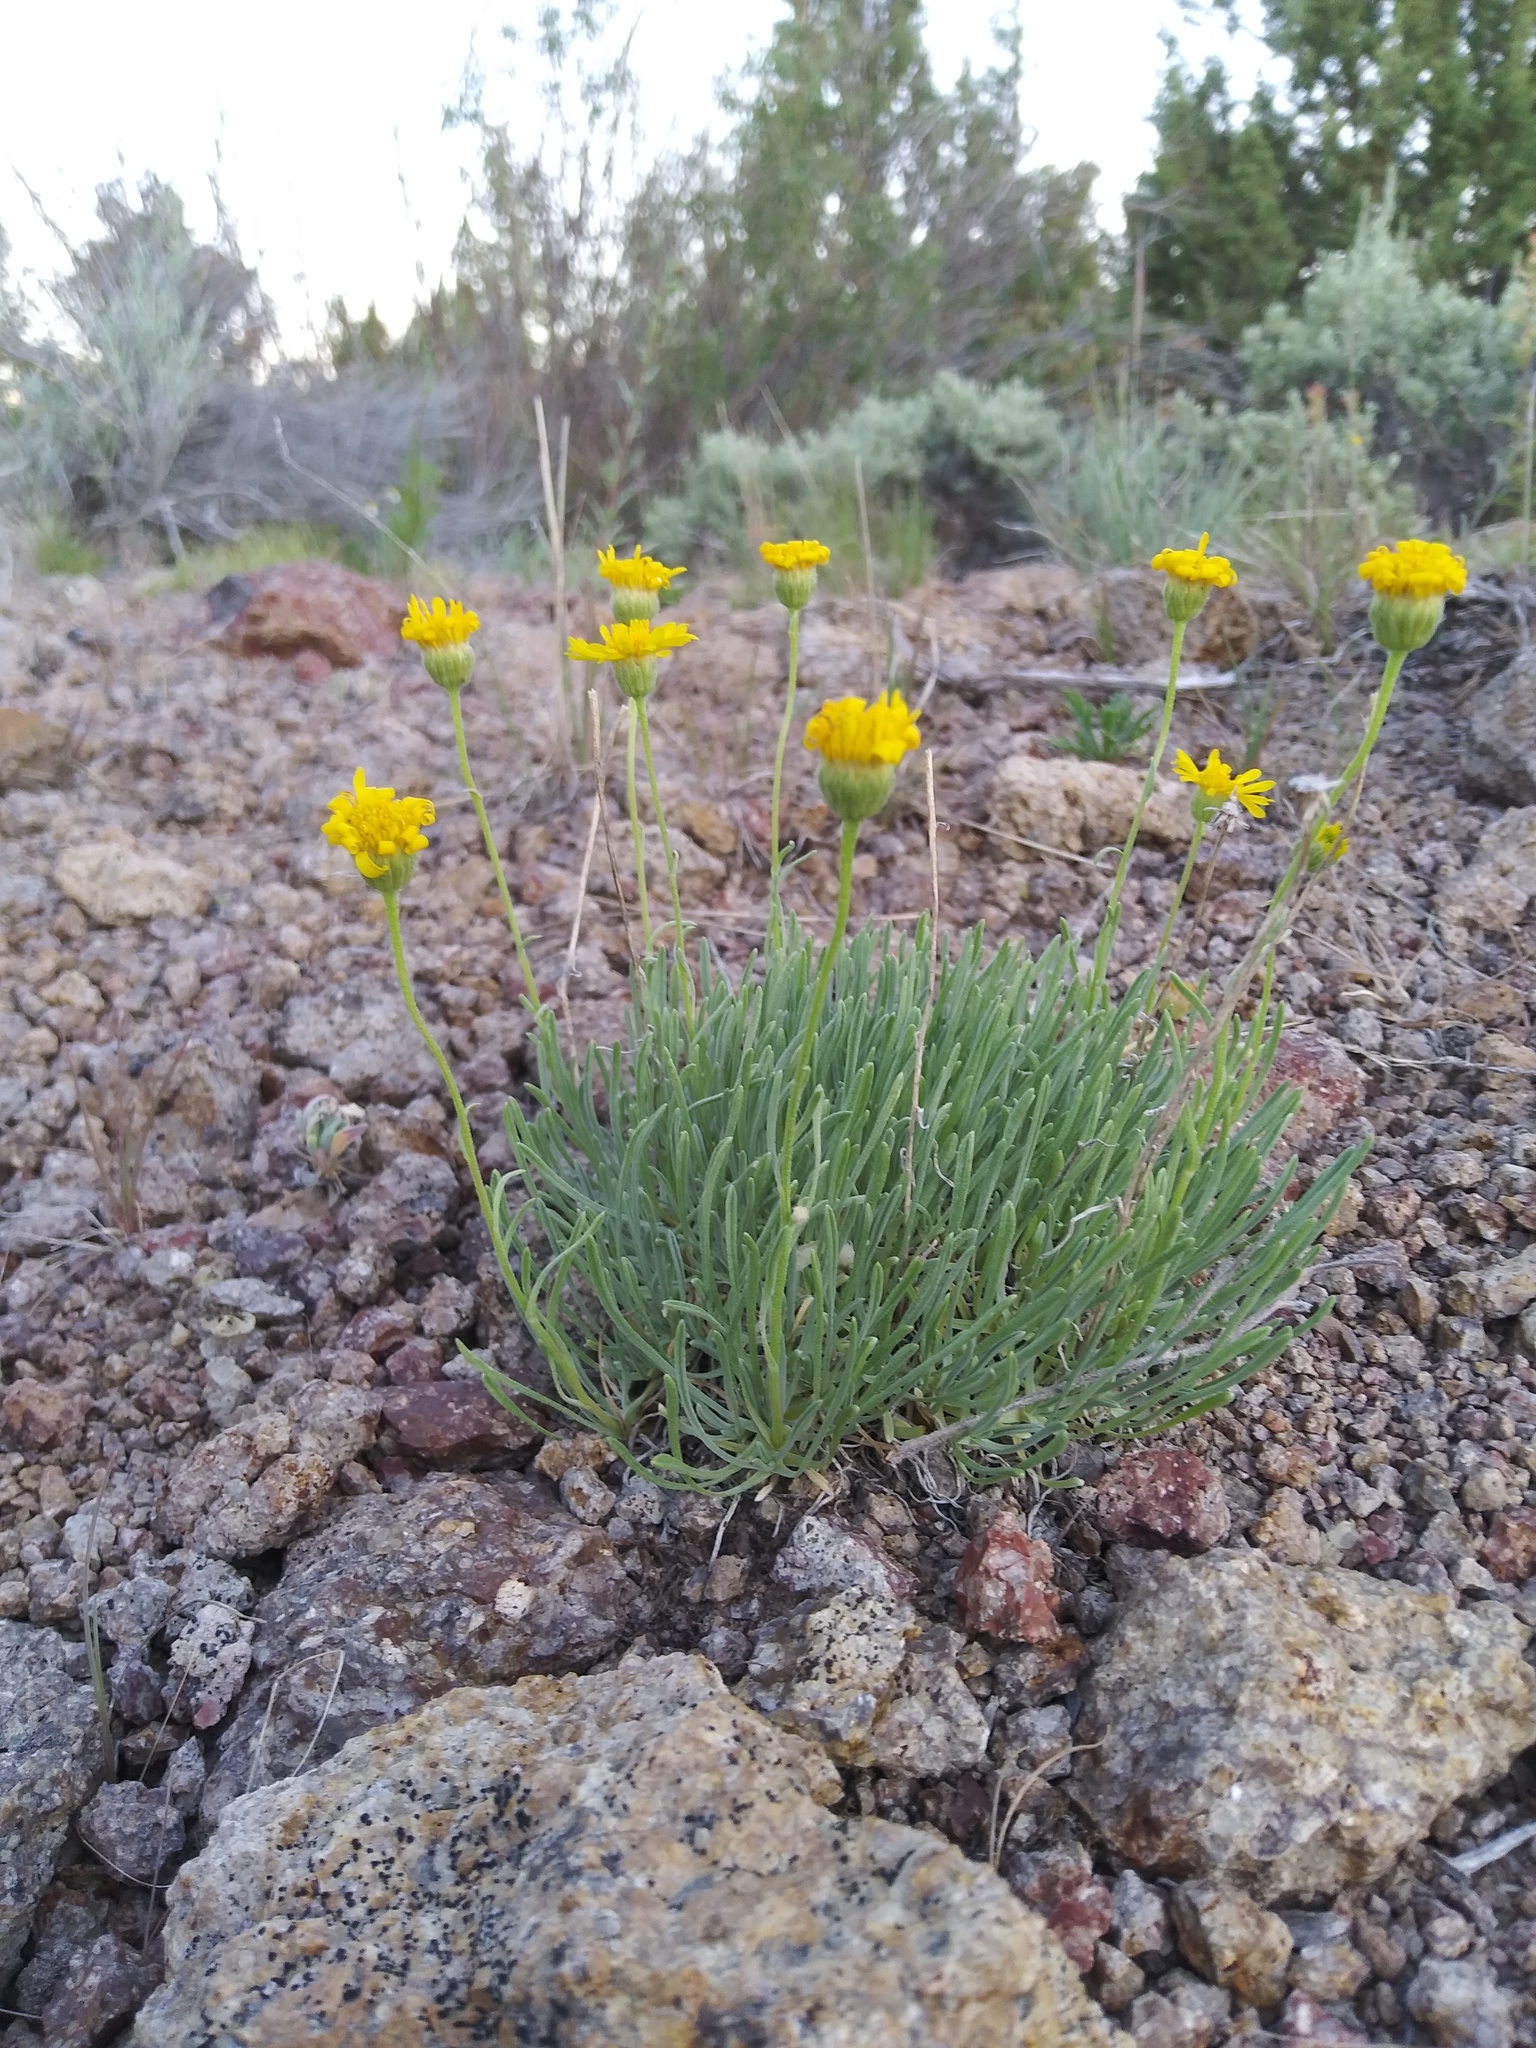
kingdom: Plantae
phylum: Tracheophyta
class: Magnoliopsida
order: Asterales
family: Asteraceae
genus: Erigeron
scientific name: Erigeron linearis
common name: Desert yellow fleabane
